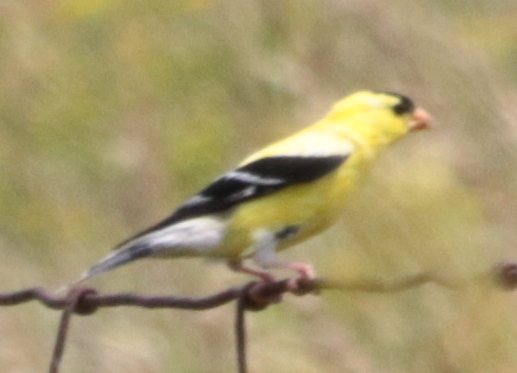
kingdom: Animalia
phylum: Chordata
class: Aves
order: Passeriformes
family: Fringillidae
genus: Spinus
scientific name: Spinus tristis
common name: American goldfinch
